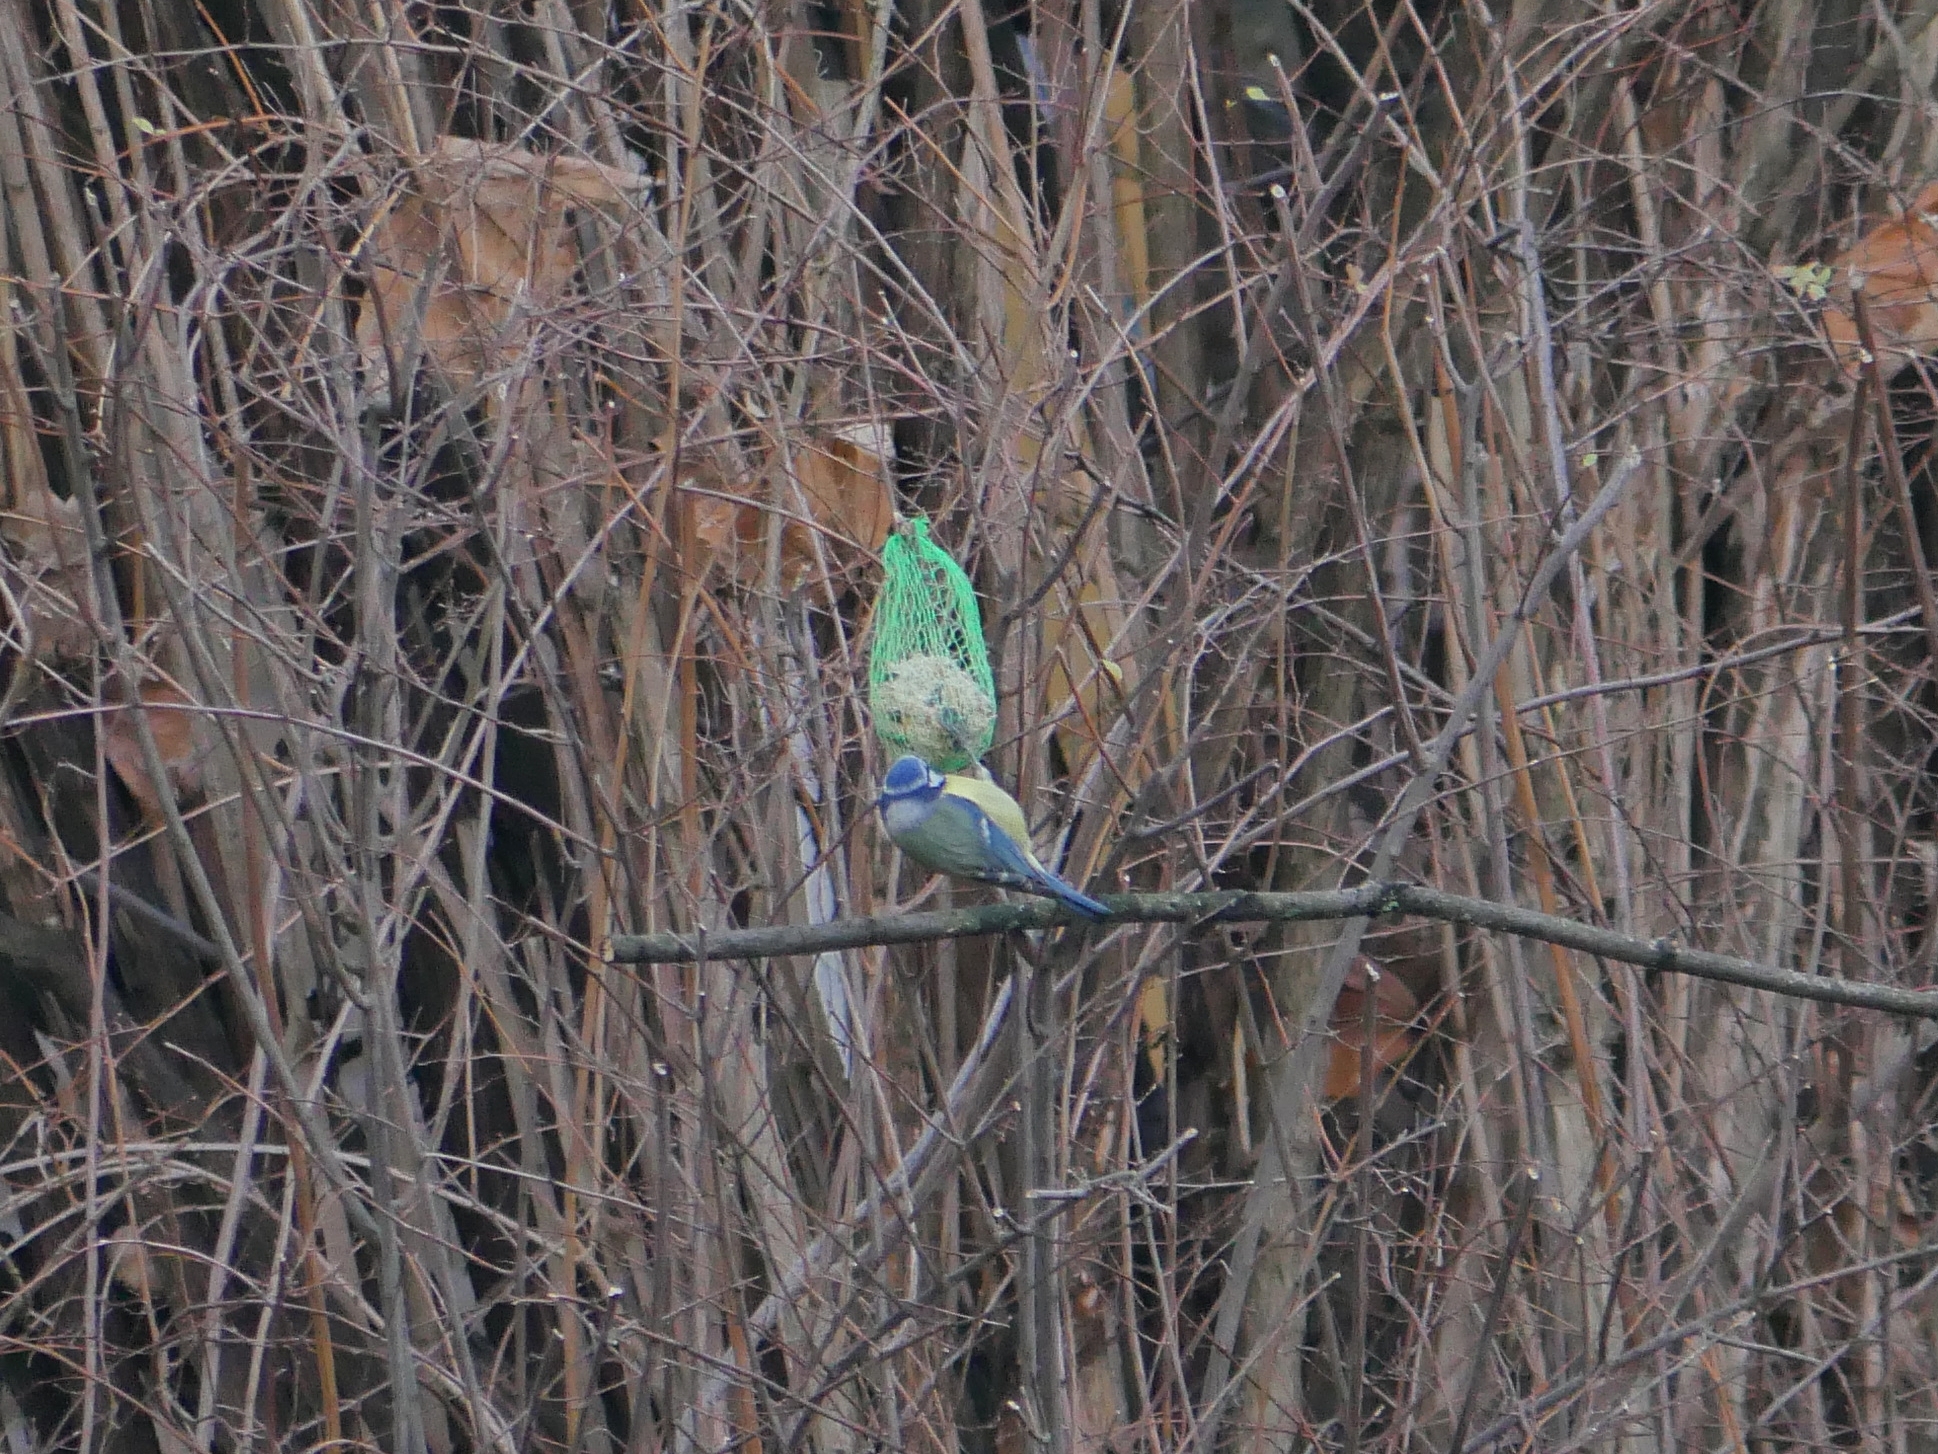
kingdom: Animalia
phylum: Chordata
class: Aves
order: Passeriformes
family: Paridae
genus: Cyanistes
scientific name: Cyanistes caeruleus
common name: Eurasian blue tit
